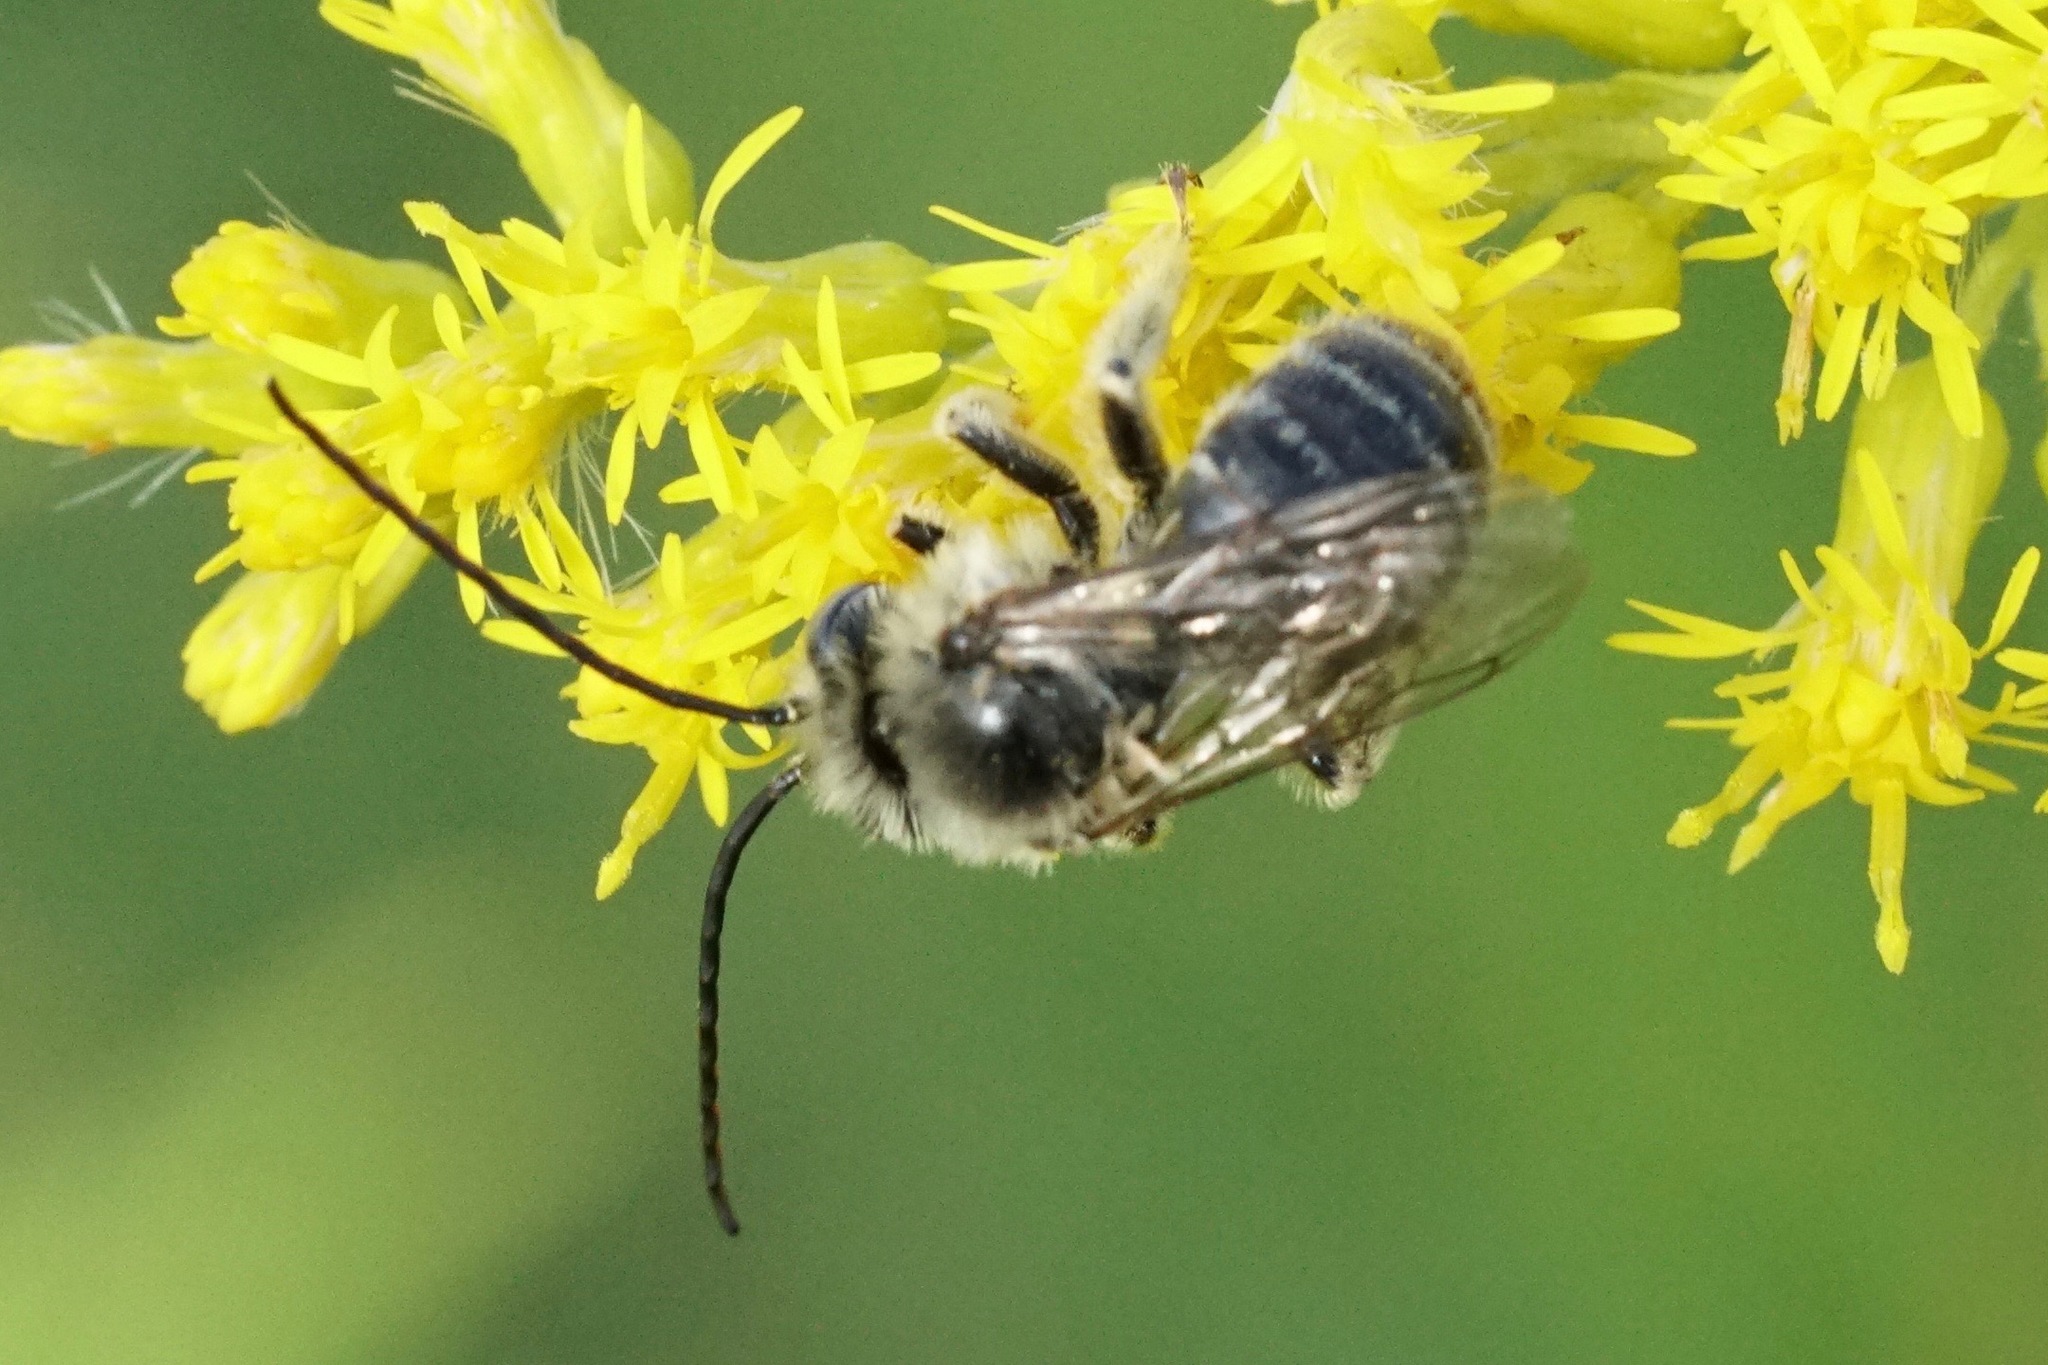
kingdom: Animalia
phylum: Arthropoda
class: Insecta
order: Hymenoptera
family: Apidae
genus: Melissodes
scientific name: Melissodes druriellus
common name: Drury's long-horned bee
